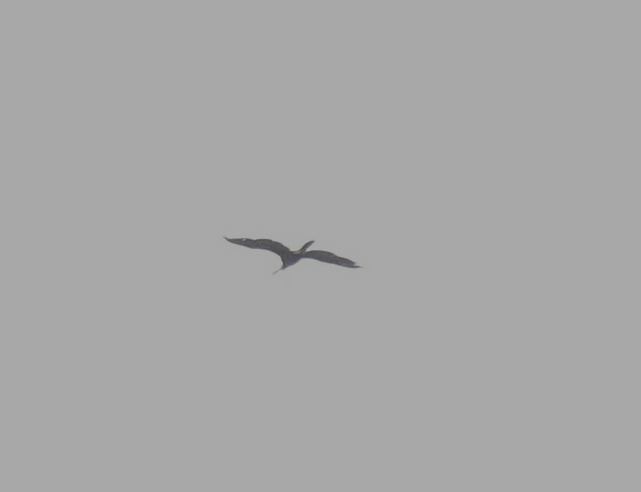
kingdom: Animalia
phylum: Chordata
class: Aves
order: Suliformes
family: Anhingidae
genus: Anhinga
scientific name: Anhinga melanogaster
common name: Oriental darter
